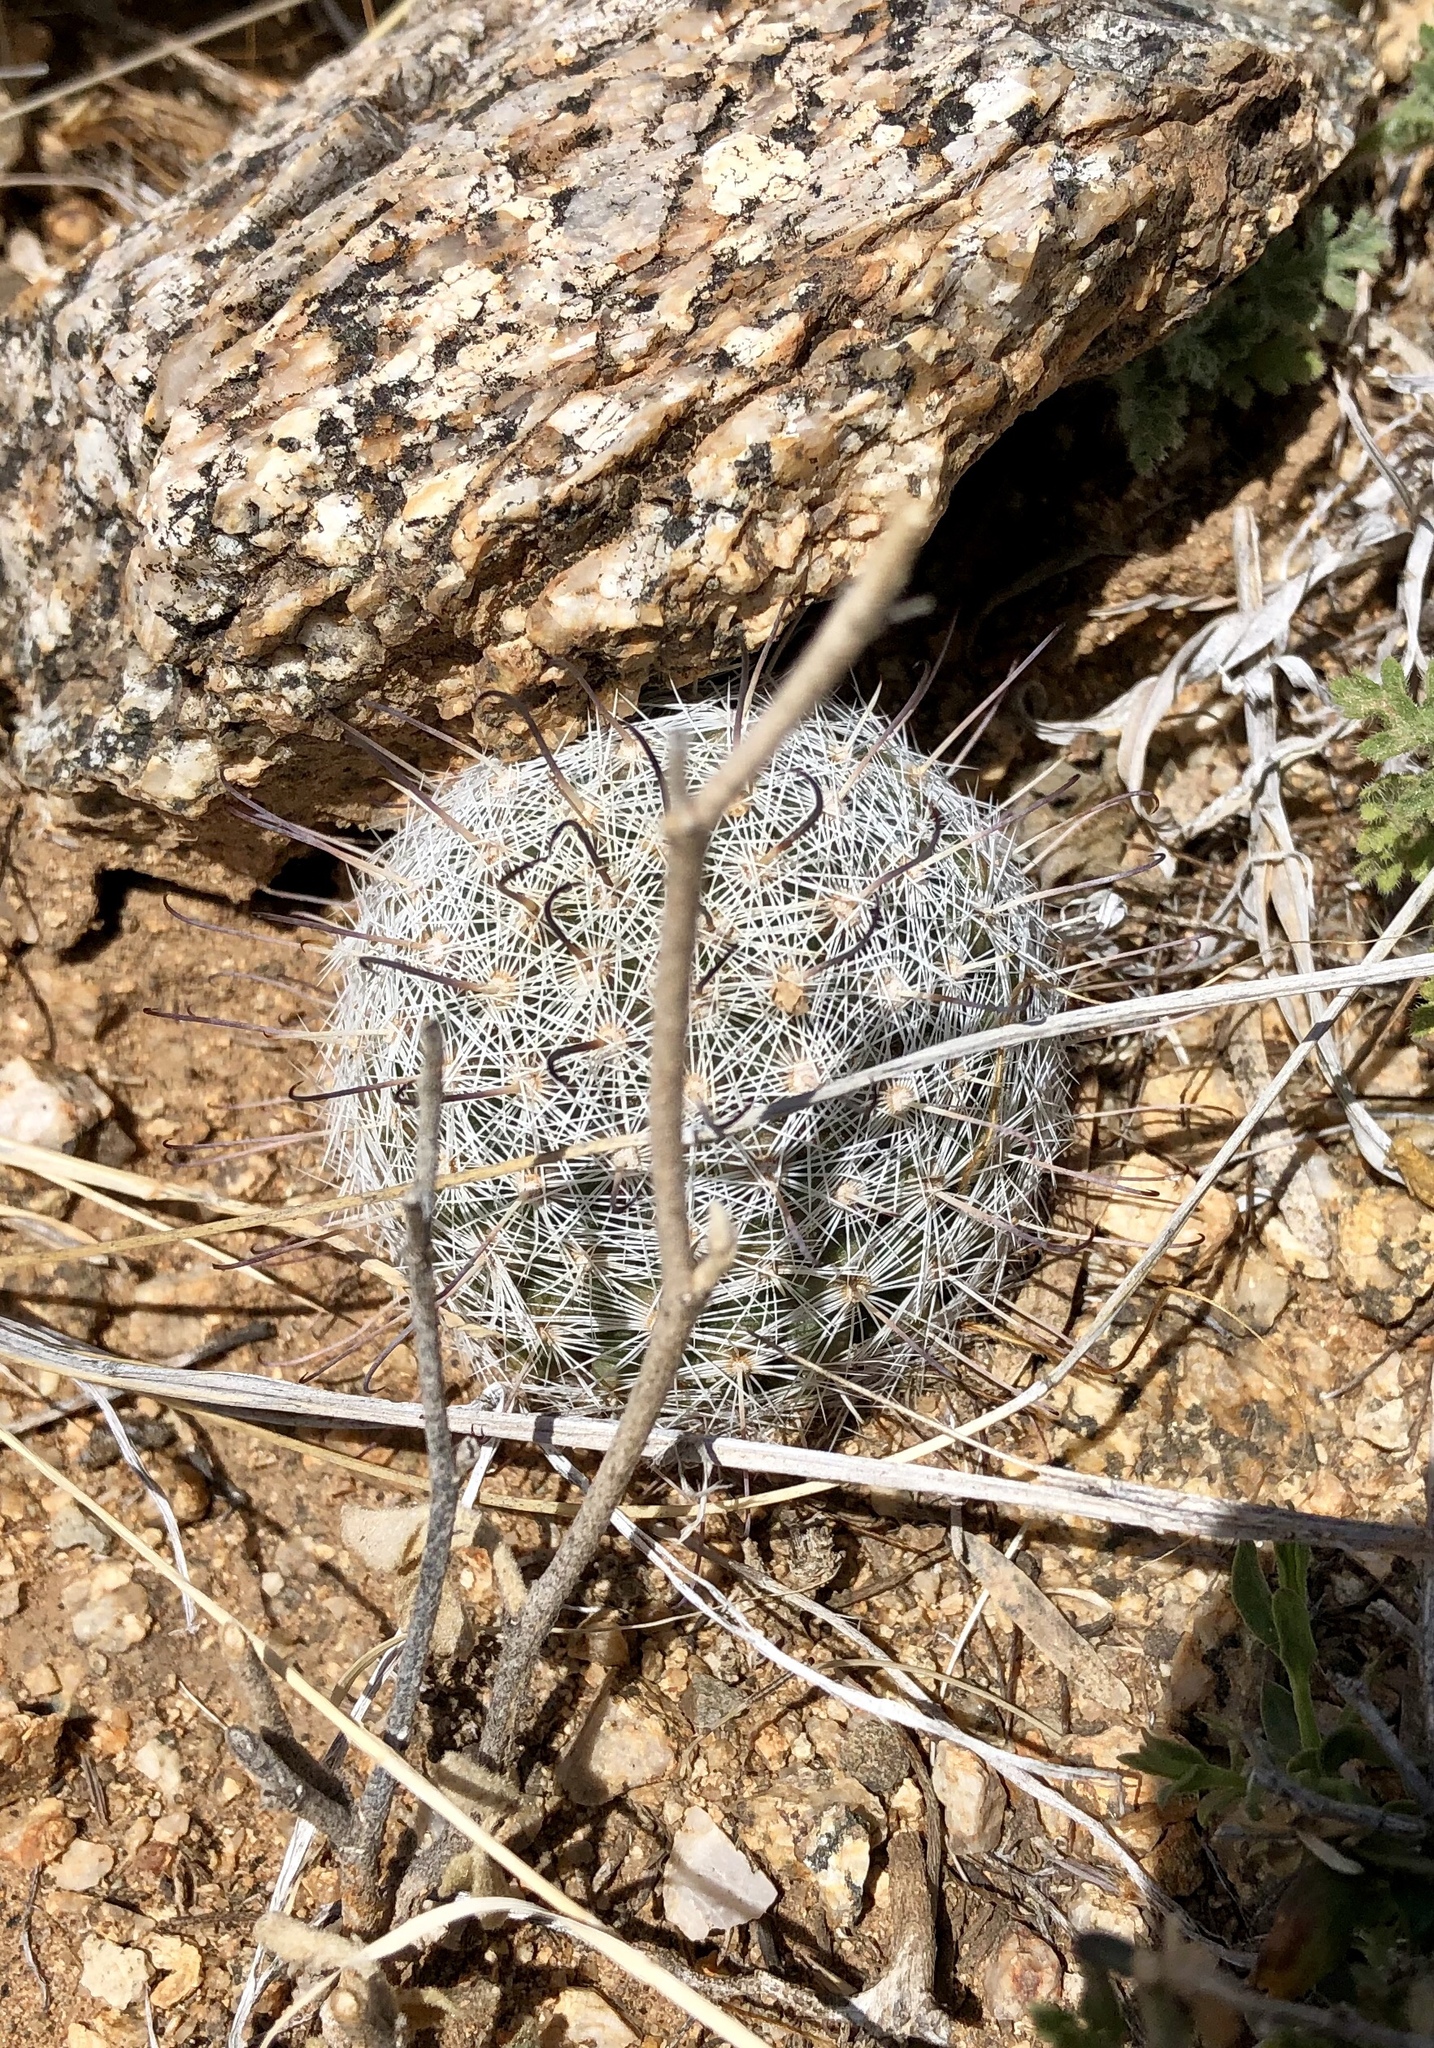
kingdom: Plantae
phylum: Tracheophyta
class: Magnoliopsida
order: Caryophyllales
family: Cactaceae
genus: Cochemiea
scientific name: Cochemiea grahamii
